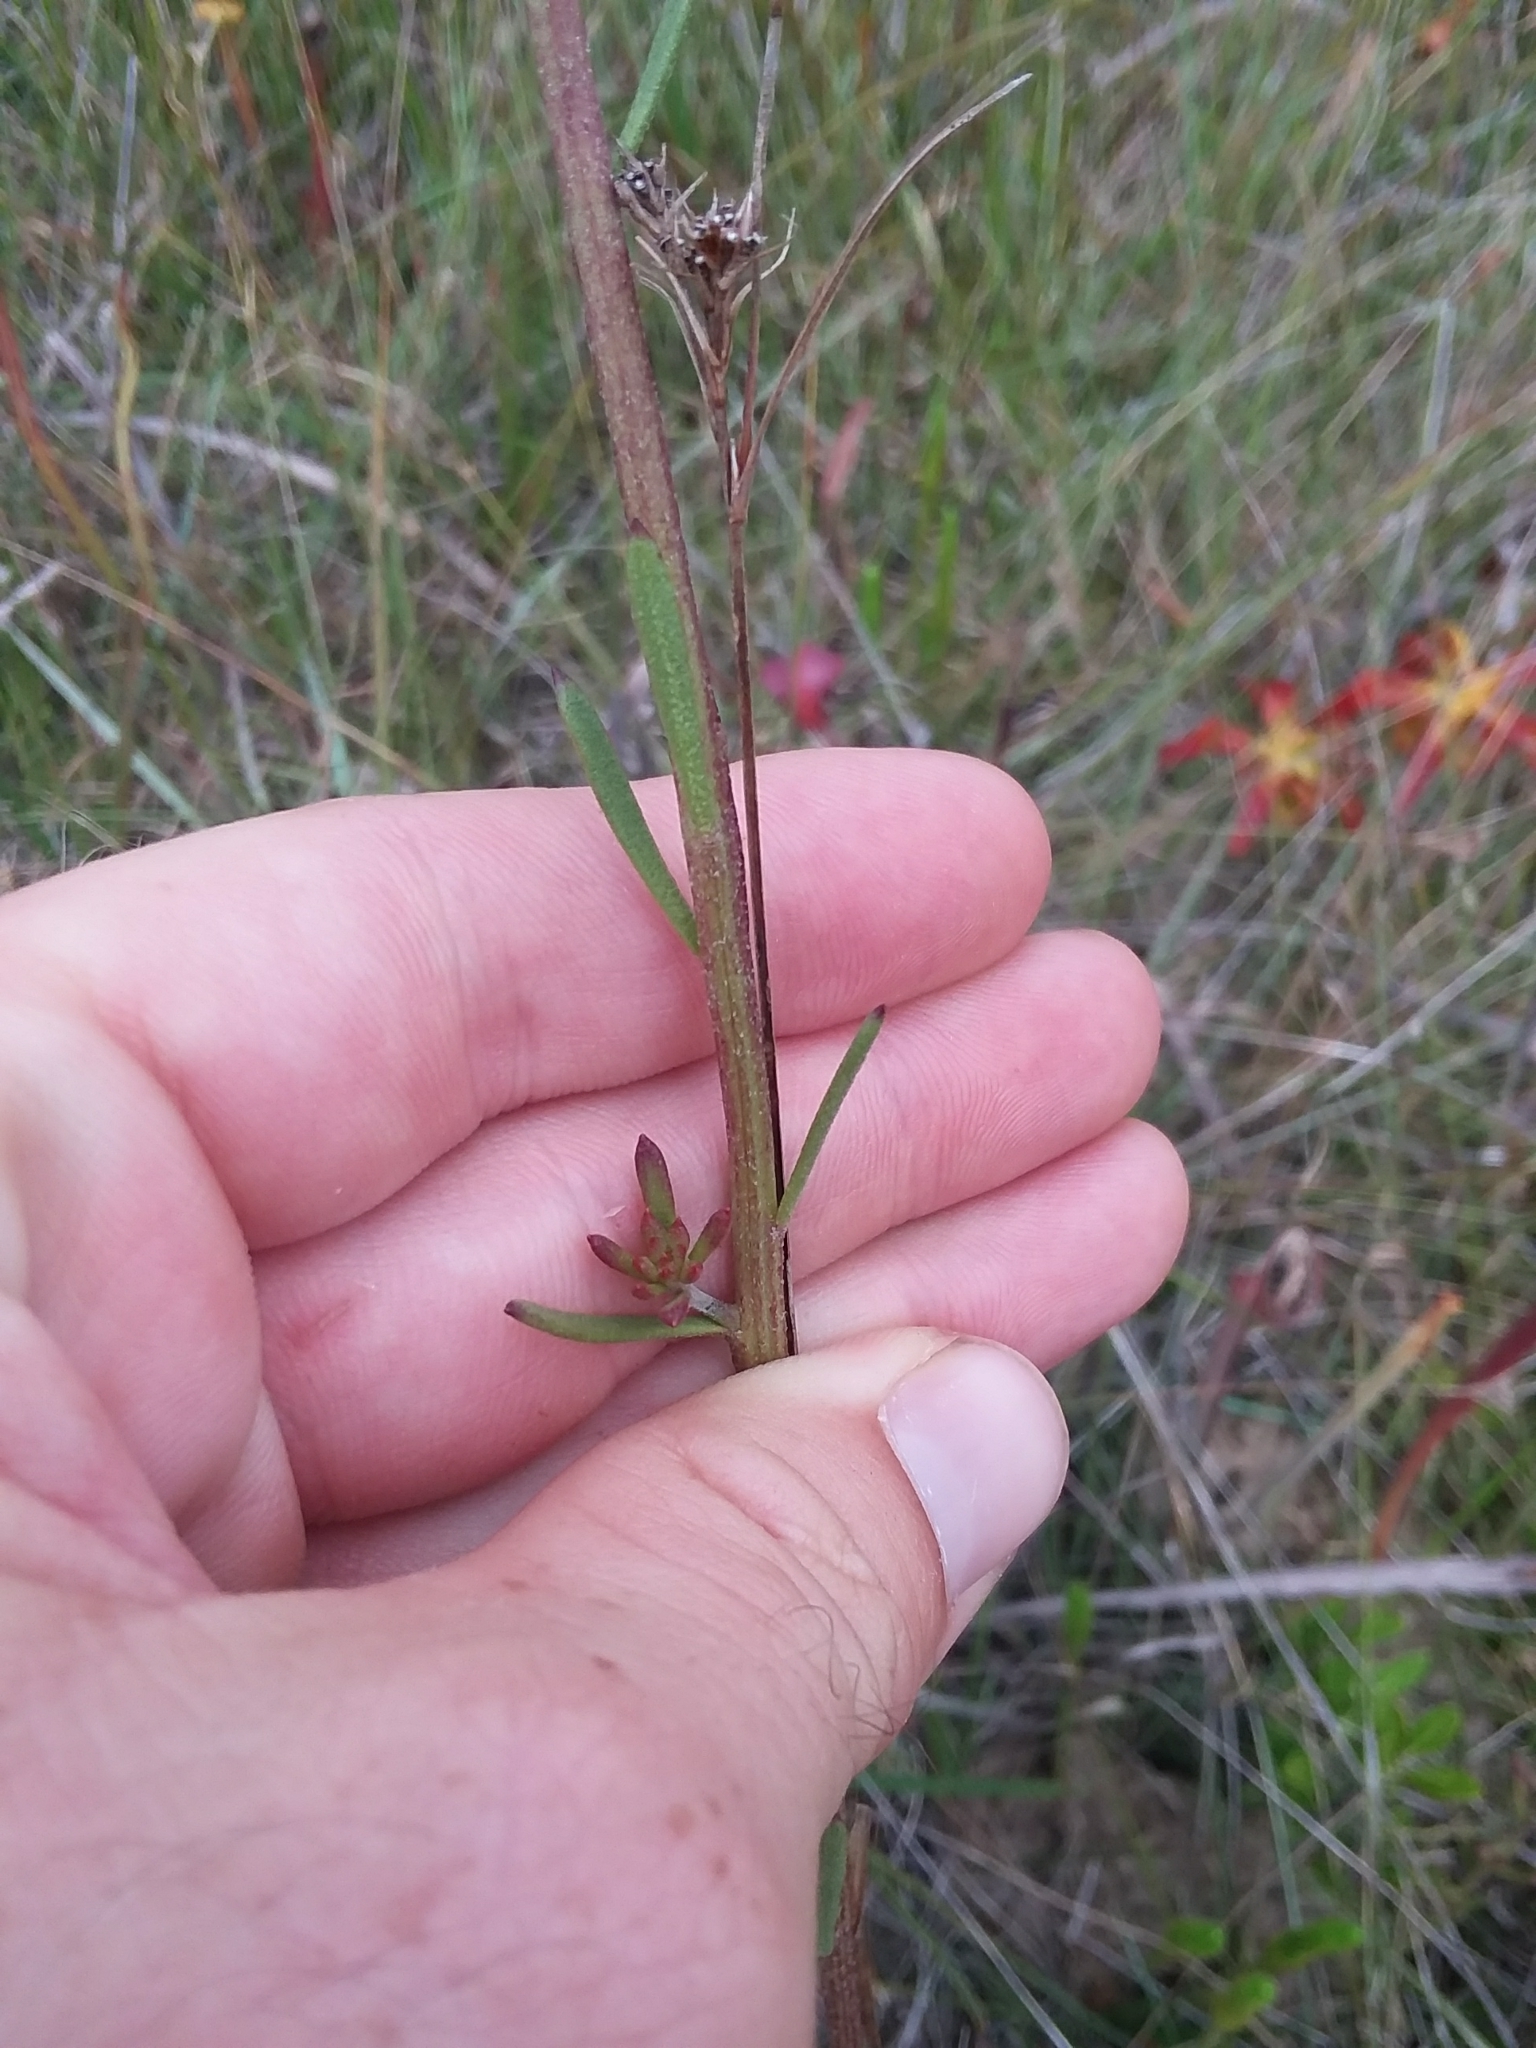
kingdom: Plantae
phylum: Tracheophyta
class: Magnoliopsida
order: Asterales
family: Asteraceae
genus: Balduina
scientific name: Balduina uniflora
